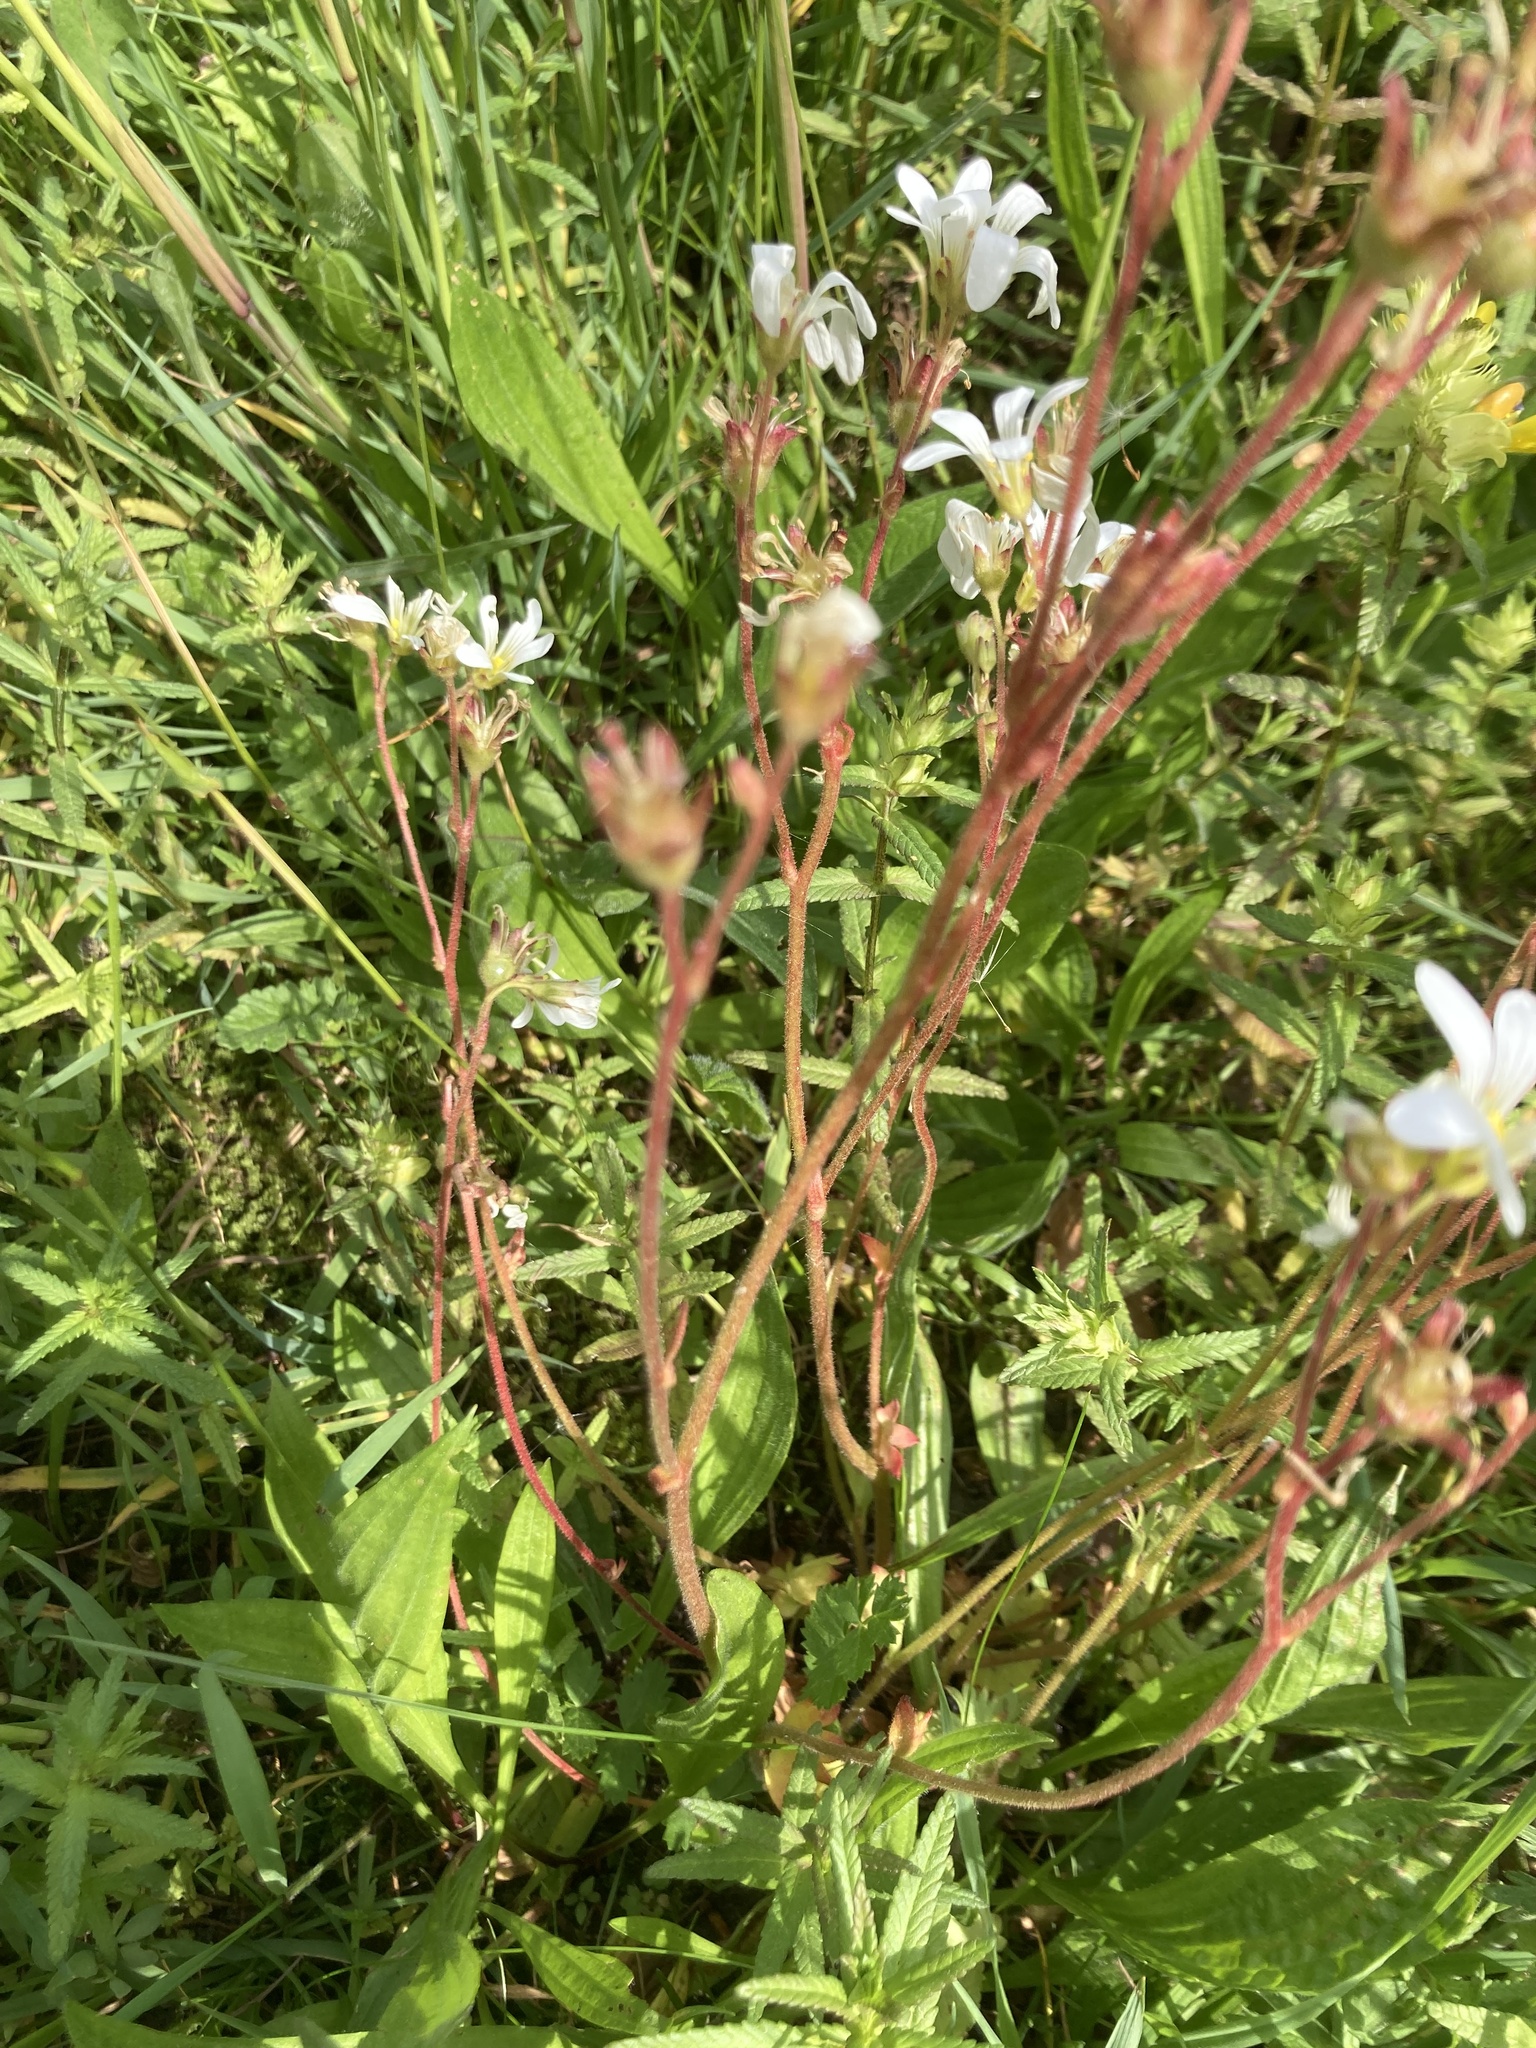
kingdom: Plantae
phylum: Tracheophyta
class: Magnoliopsida
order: Saxifragales
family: Saxifragaceae
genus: Saxifraga
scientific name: Saxifraga granulata
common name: Meadow saxifrage
